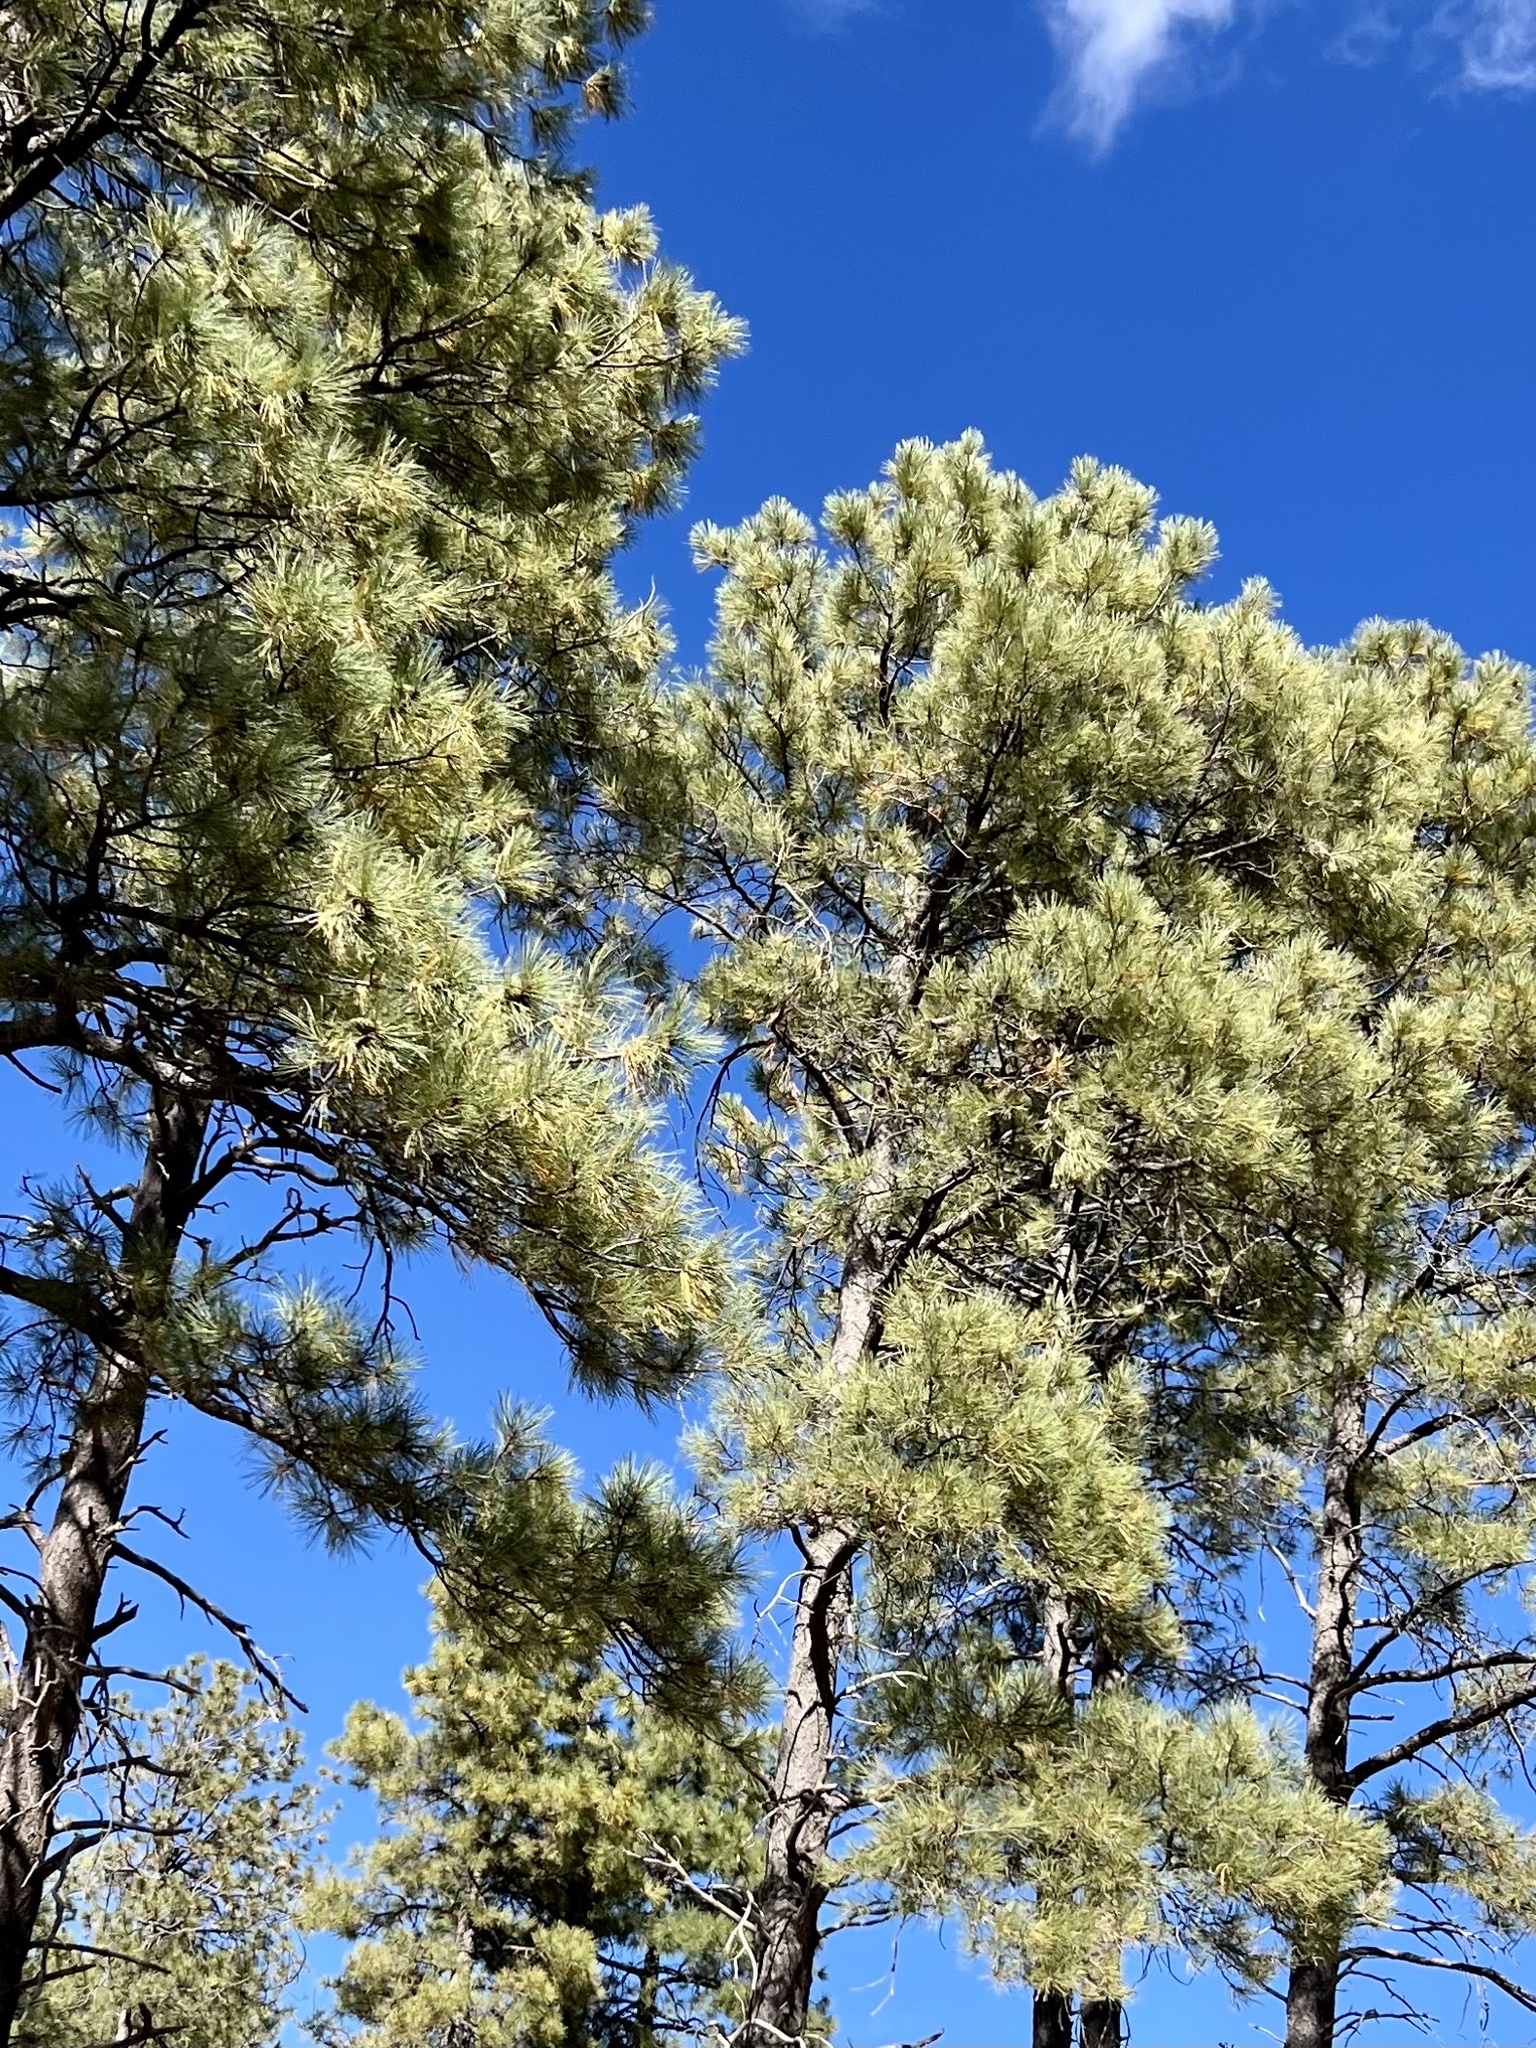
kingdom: Plantae
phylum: Tracheophyta
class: Pinopsida
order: Pinales
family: Pinaceae
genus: Pinus
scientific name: Pinus ponderosa
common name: Western yellow-pine
